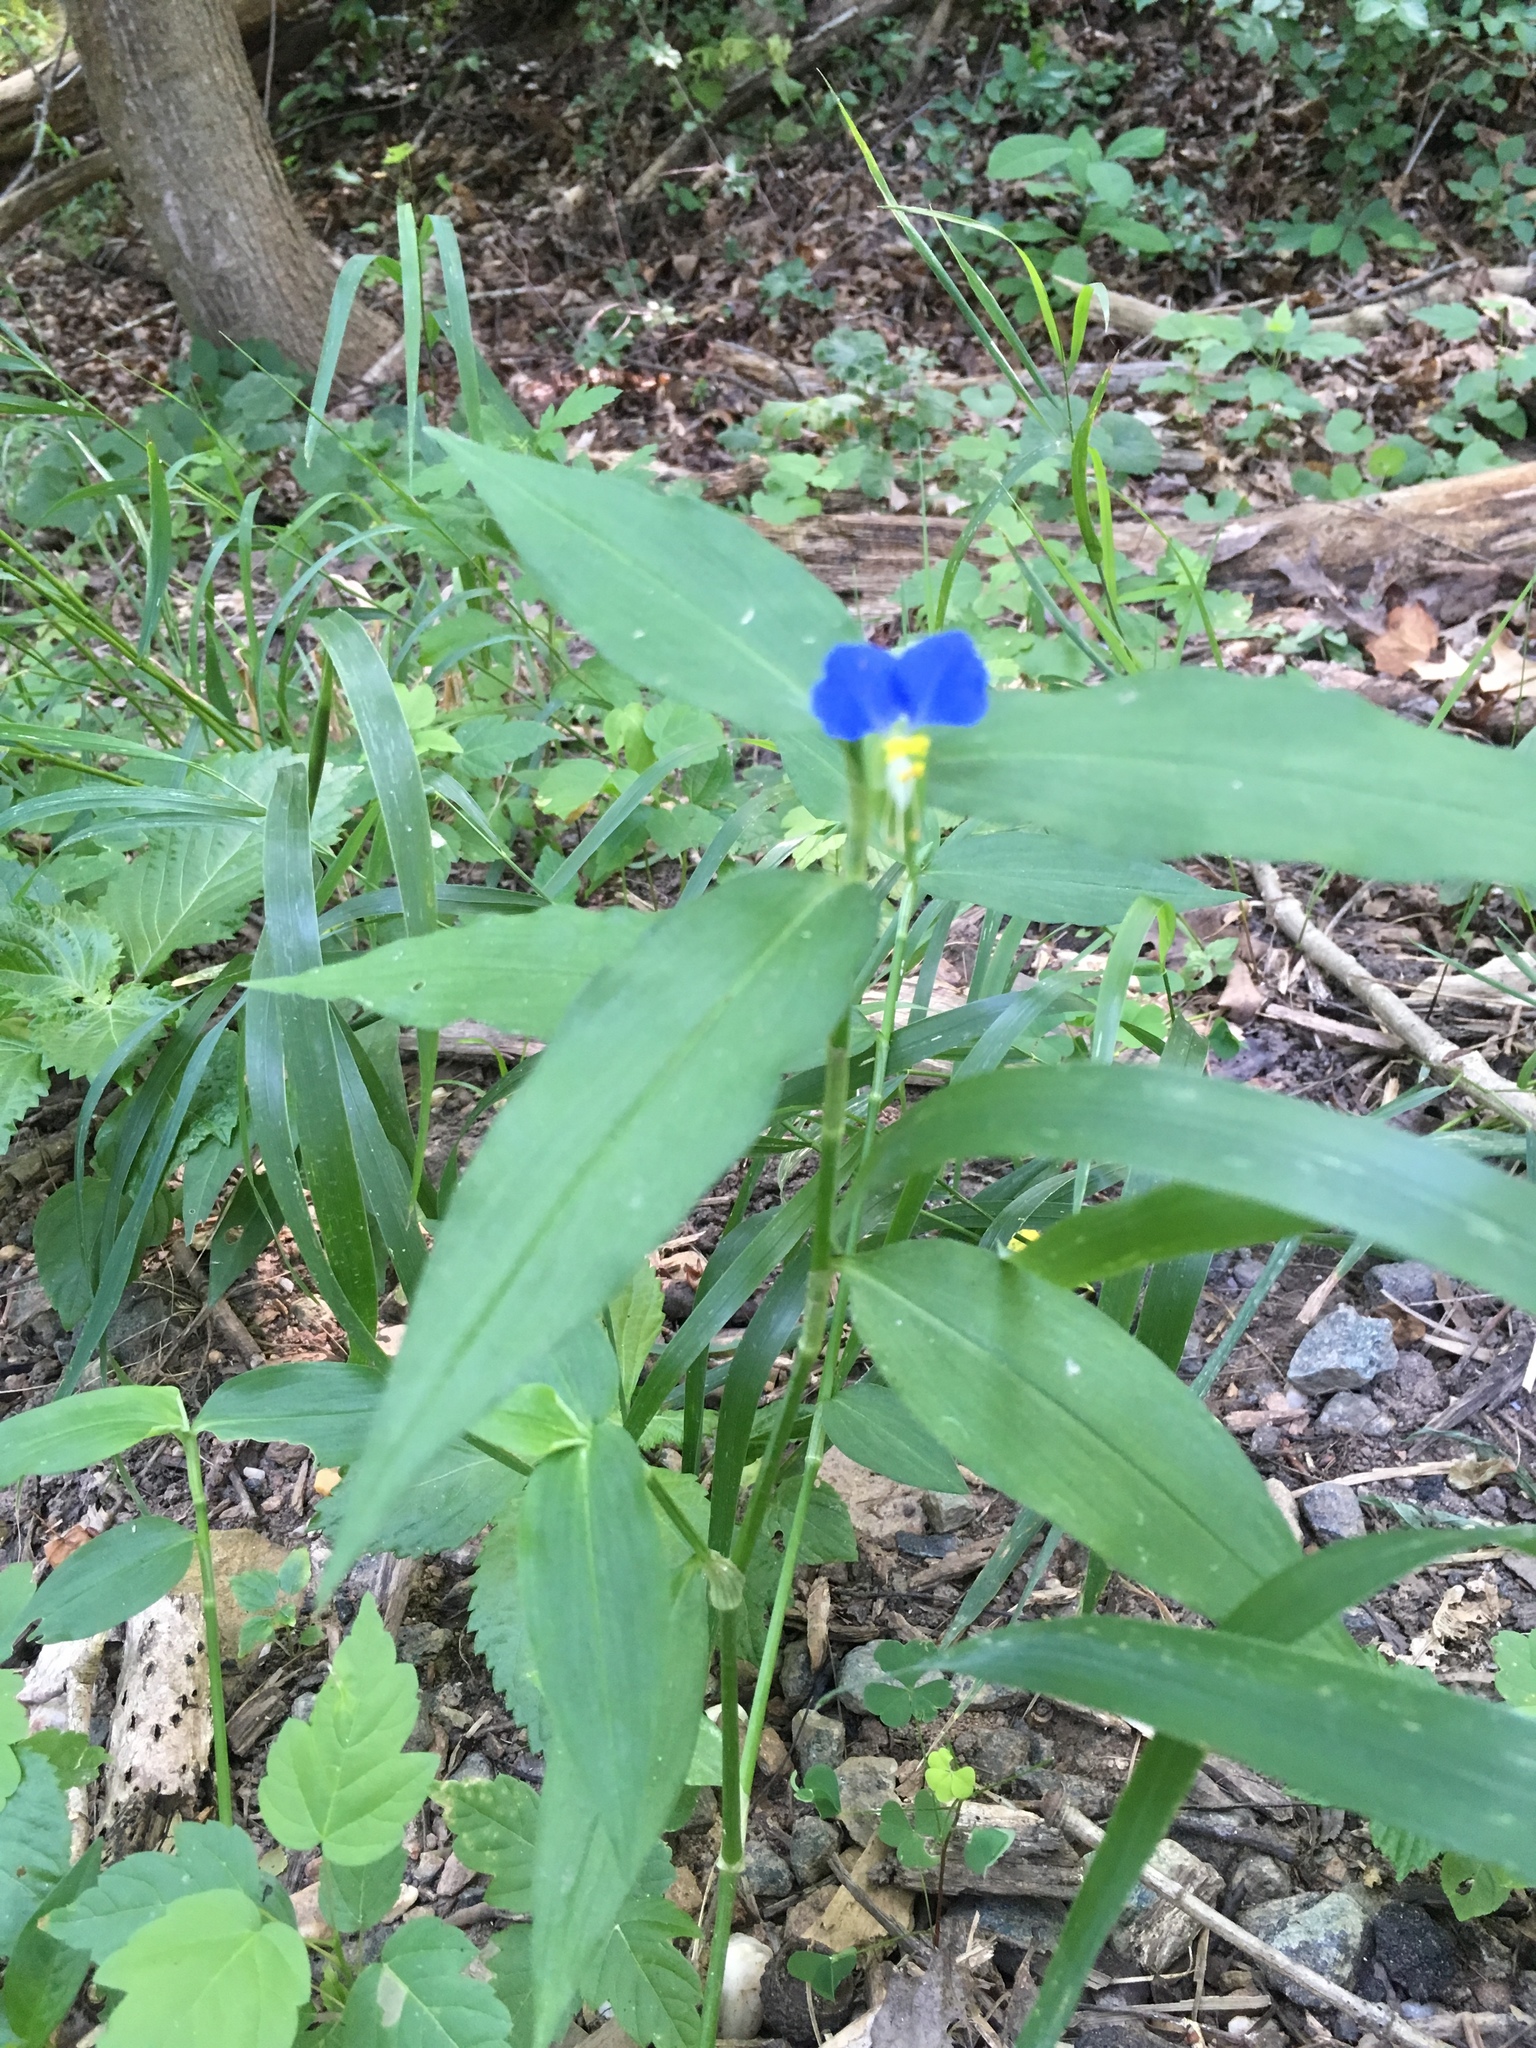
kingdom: Plantae
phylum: Tracheophyta
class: Liliopsida
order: Commelinales
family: Commelinaceae
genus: Commelina
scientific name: Commelina communis
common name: Asiatic dayflower
